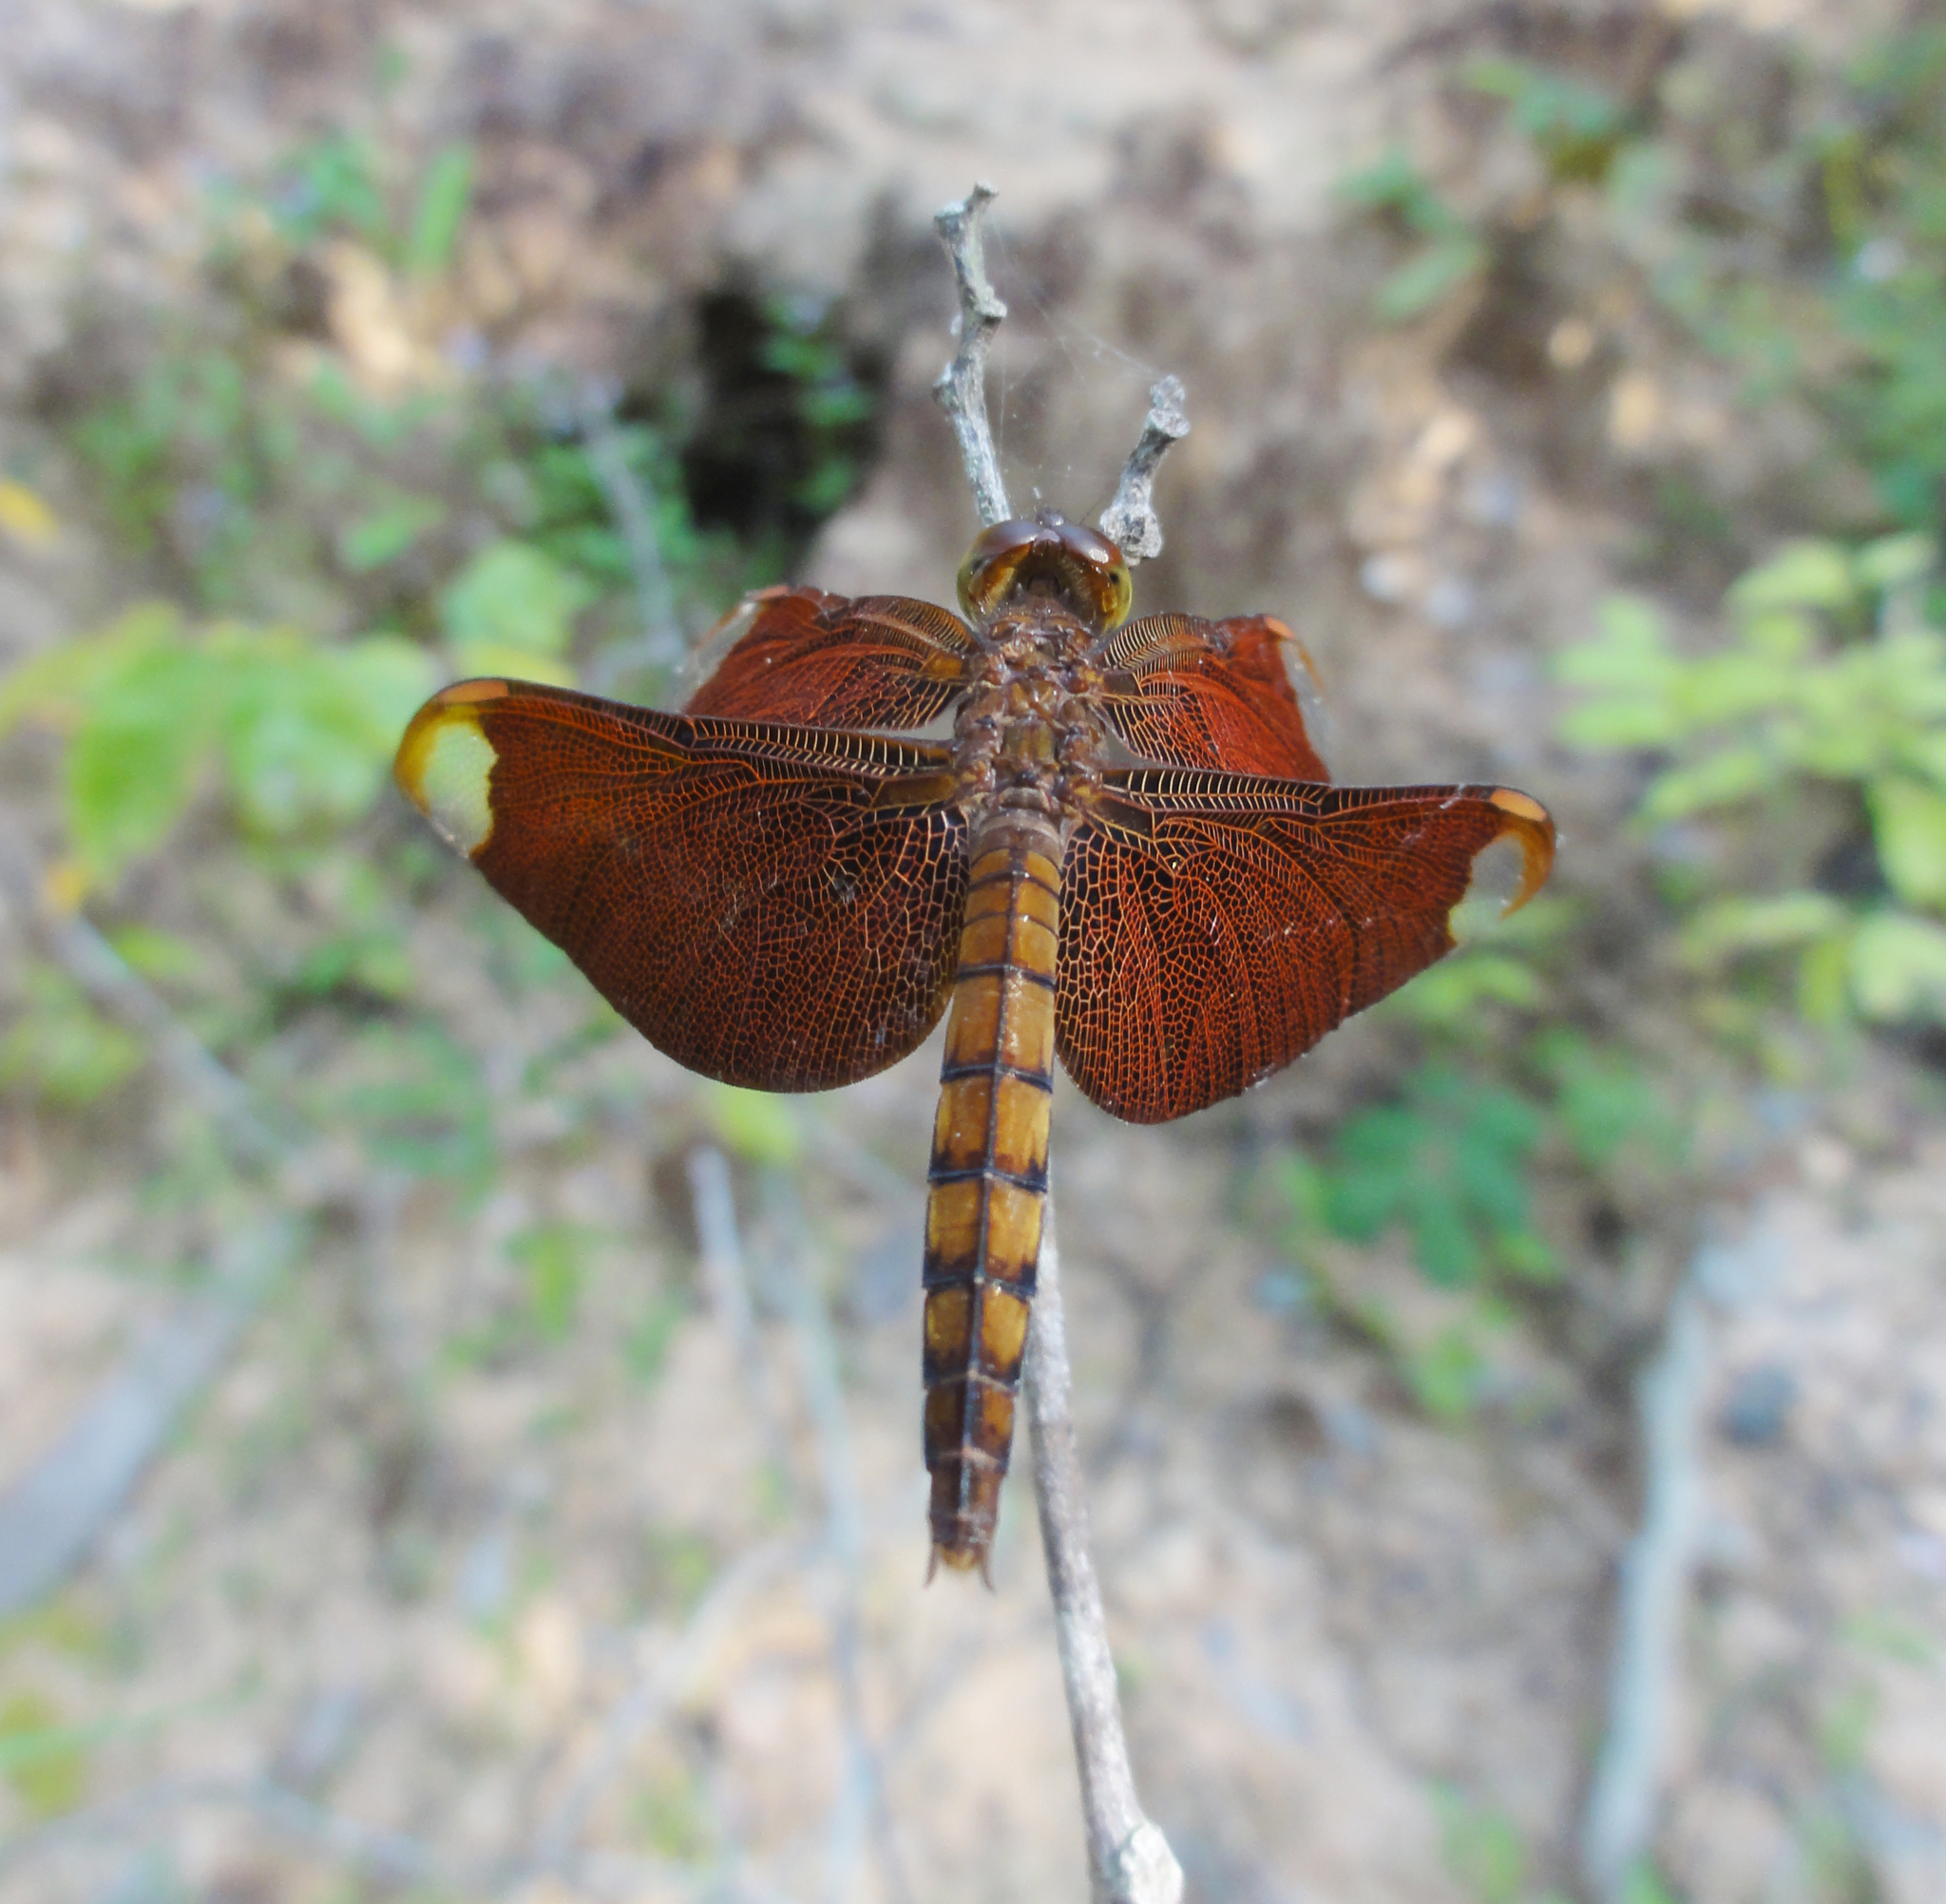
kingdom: Animalia
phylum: Arthropoda
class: Insecta
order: Odonata
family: Libellulidae
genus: Neurothemis
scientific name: Neurothemis fulvia
